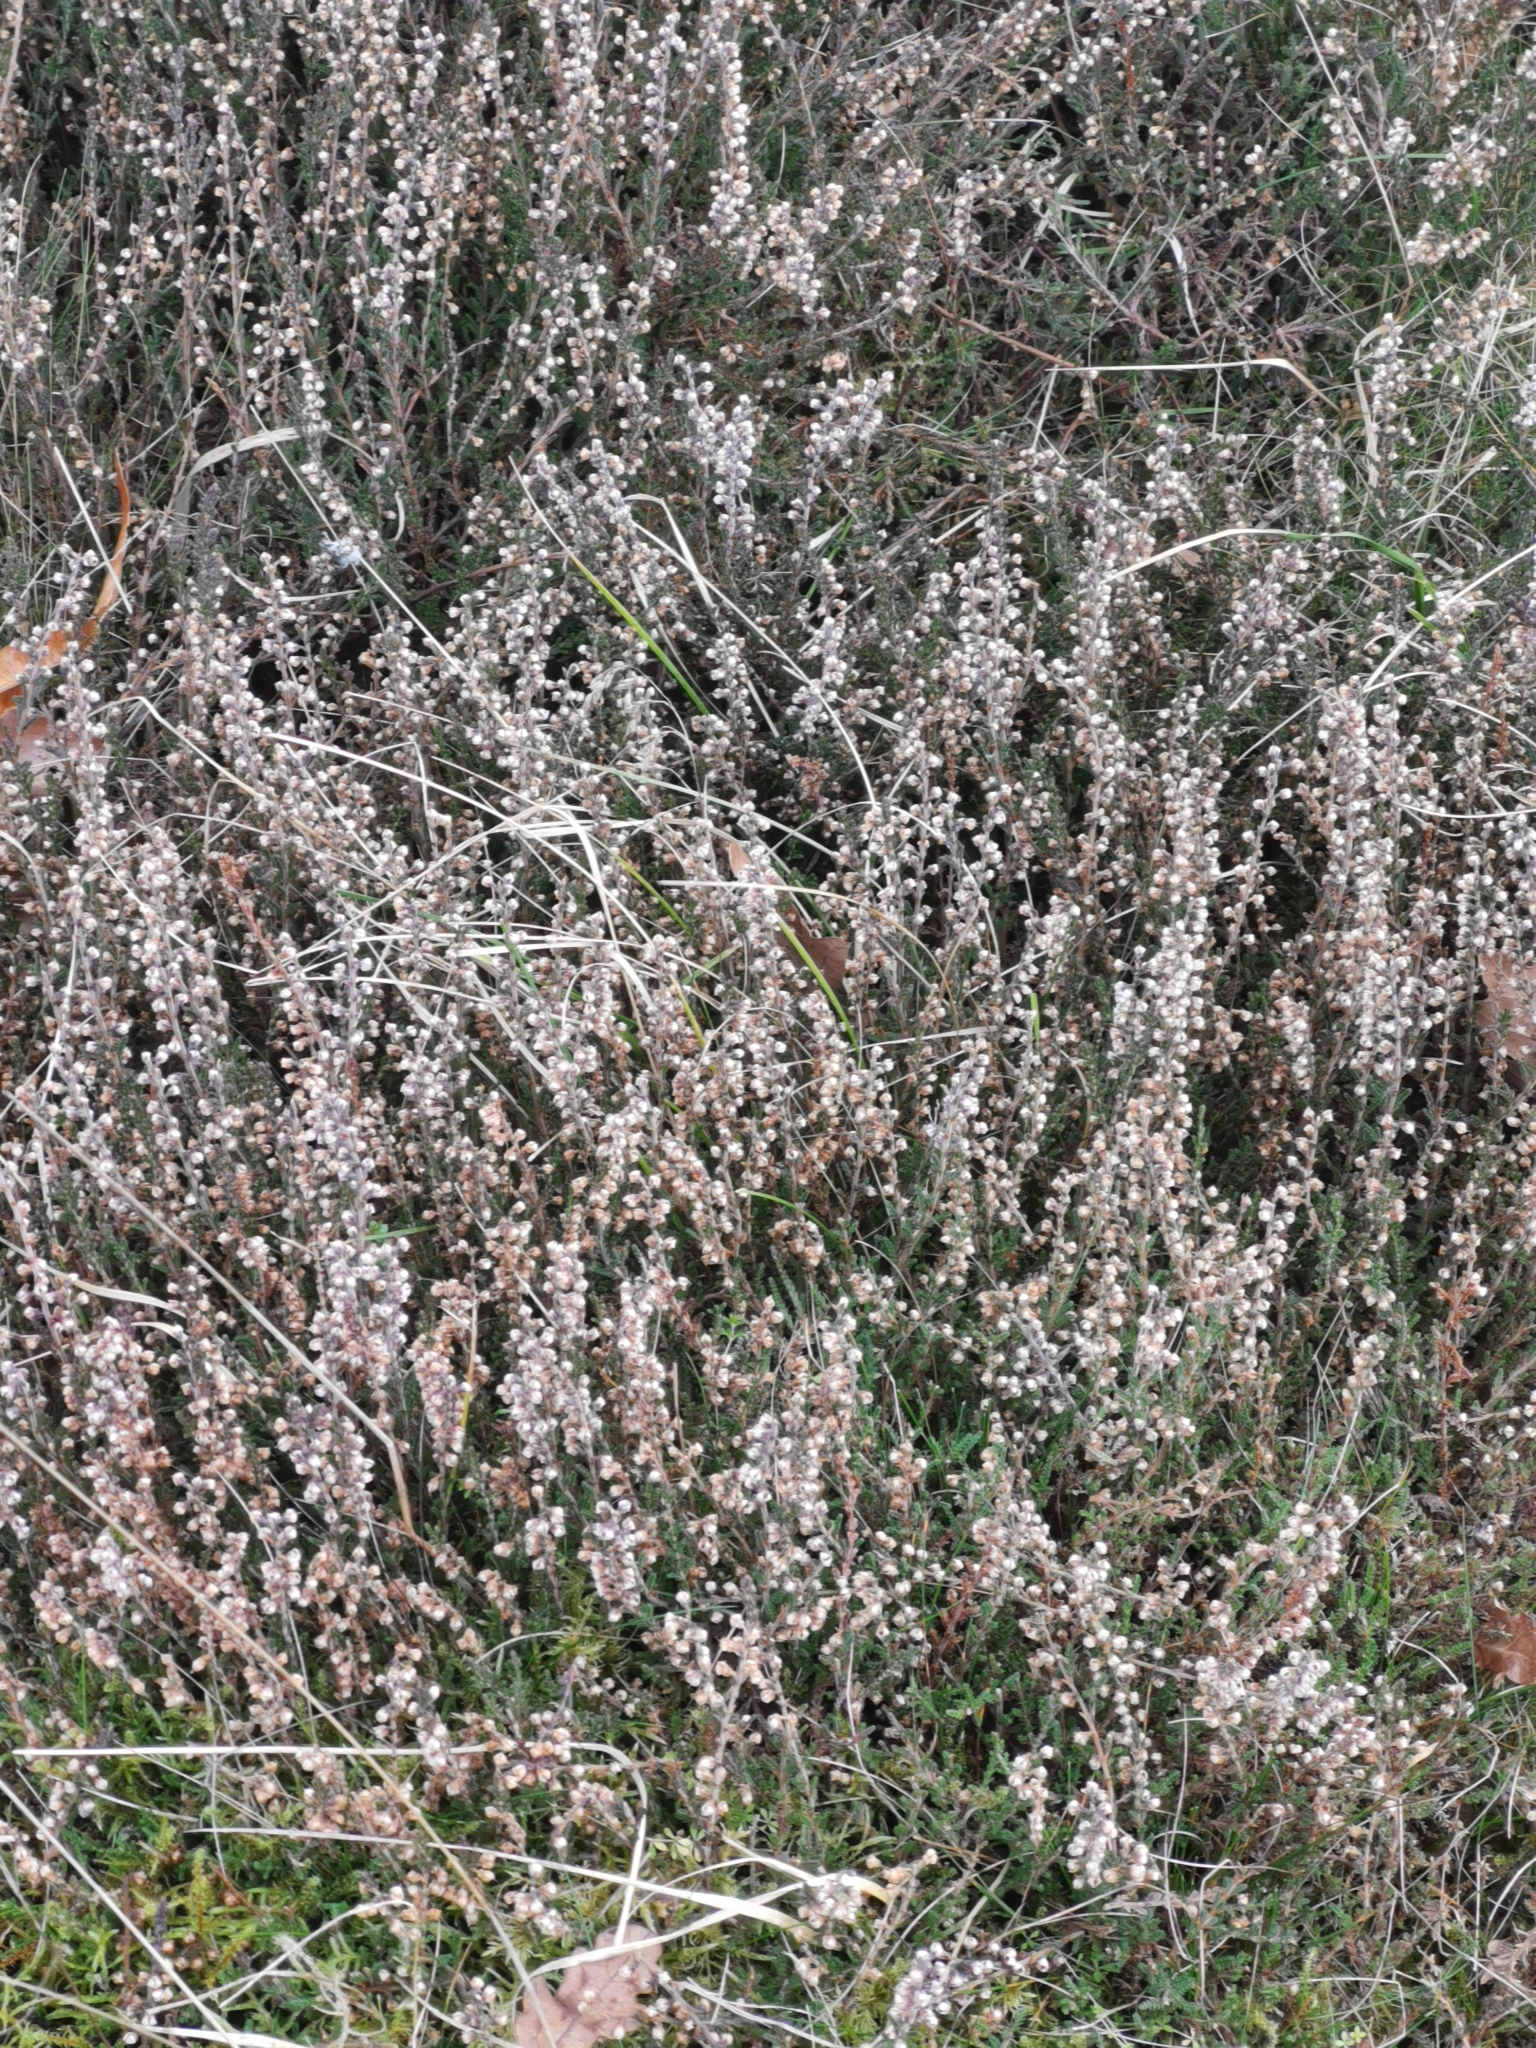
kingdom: Plantae
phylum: Tracheophyta
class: Magnoliopsida
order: Ericales
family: Ericaceae
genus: Calluna
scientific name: Calluna vulgaris
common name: Heather
